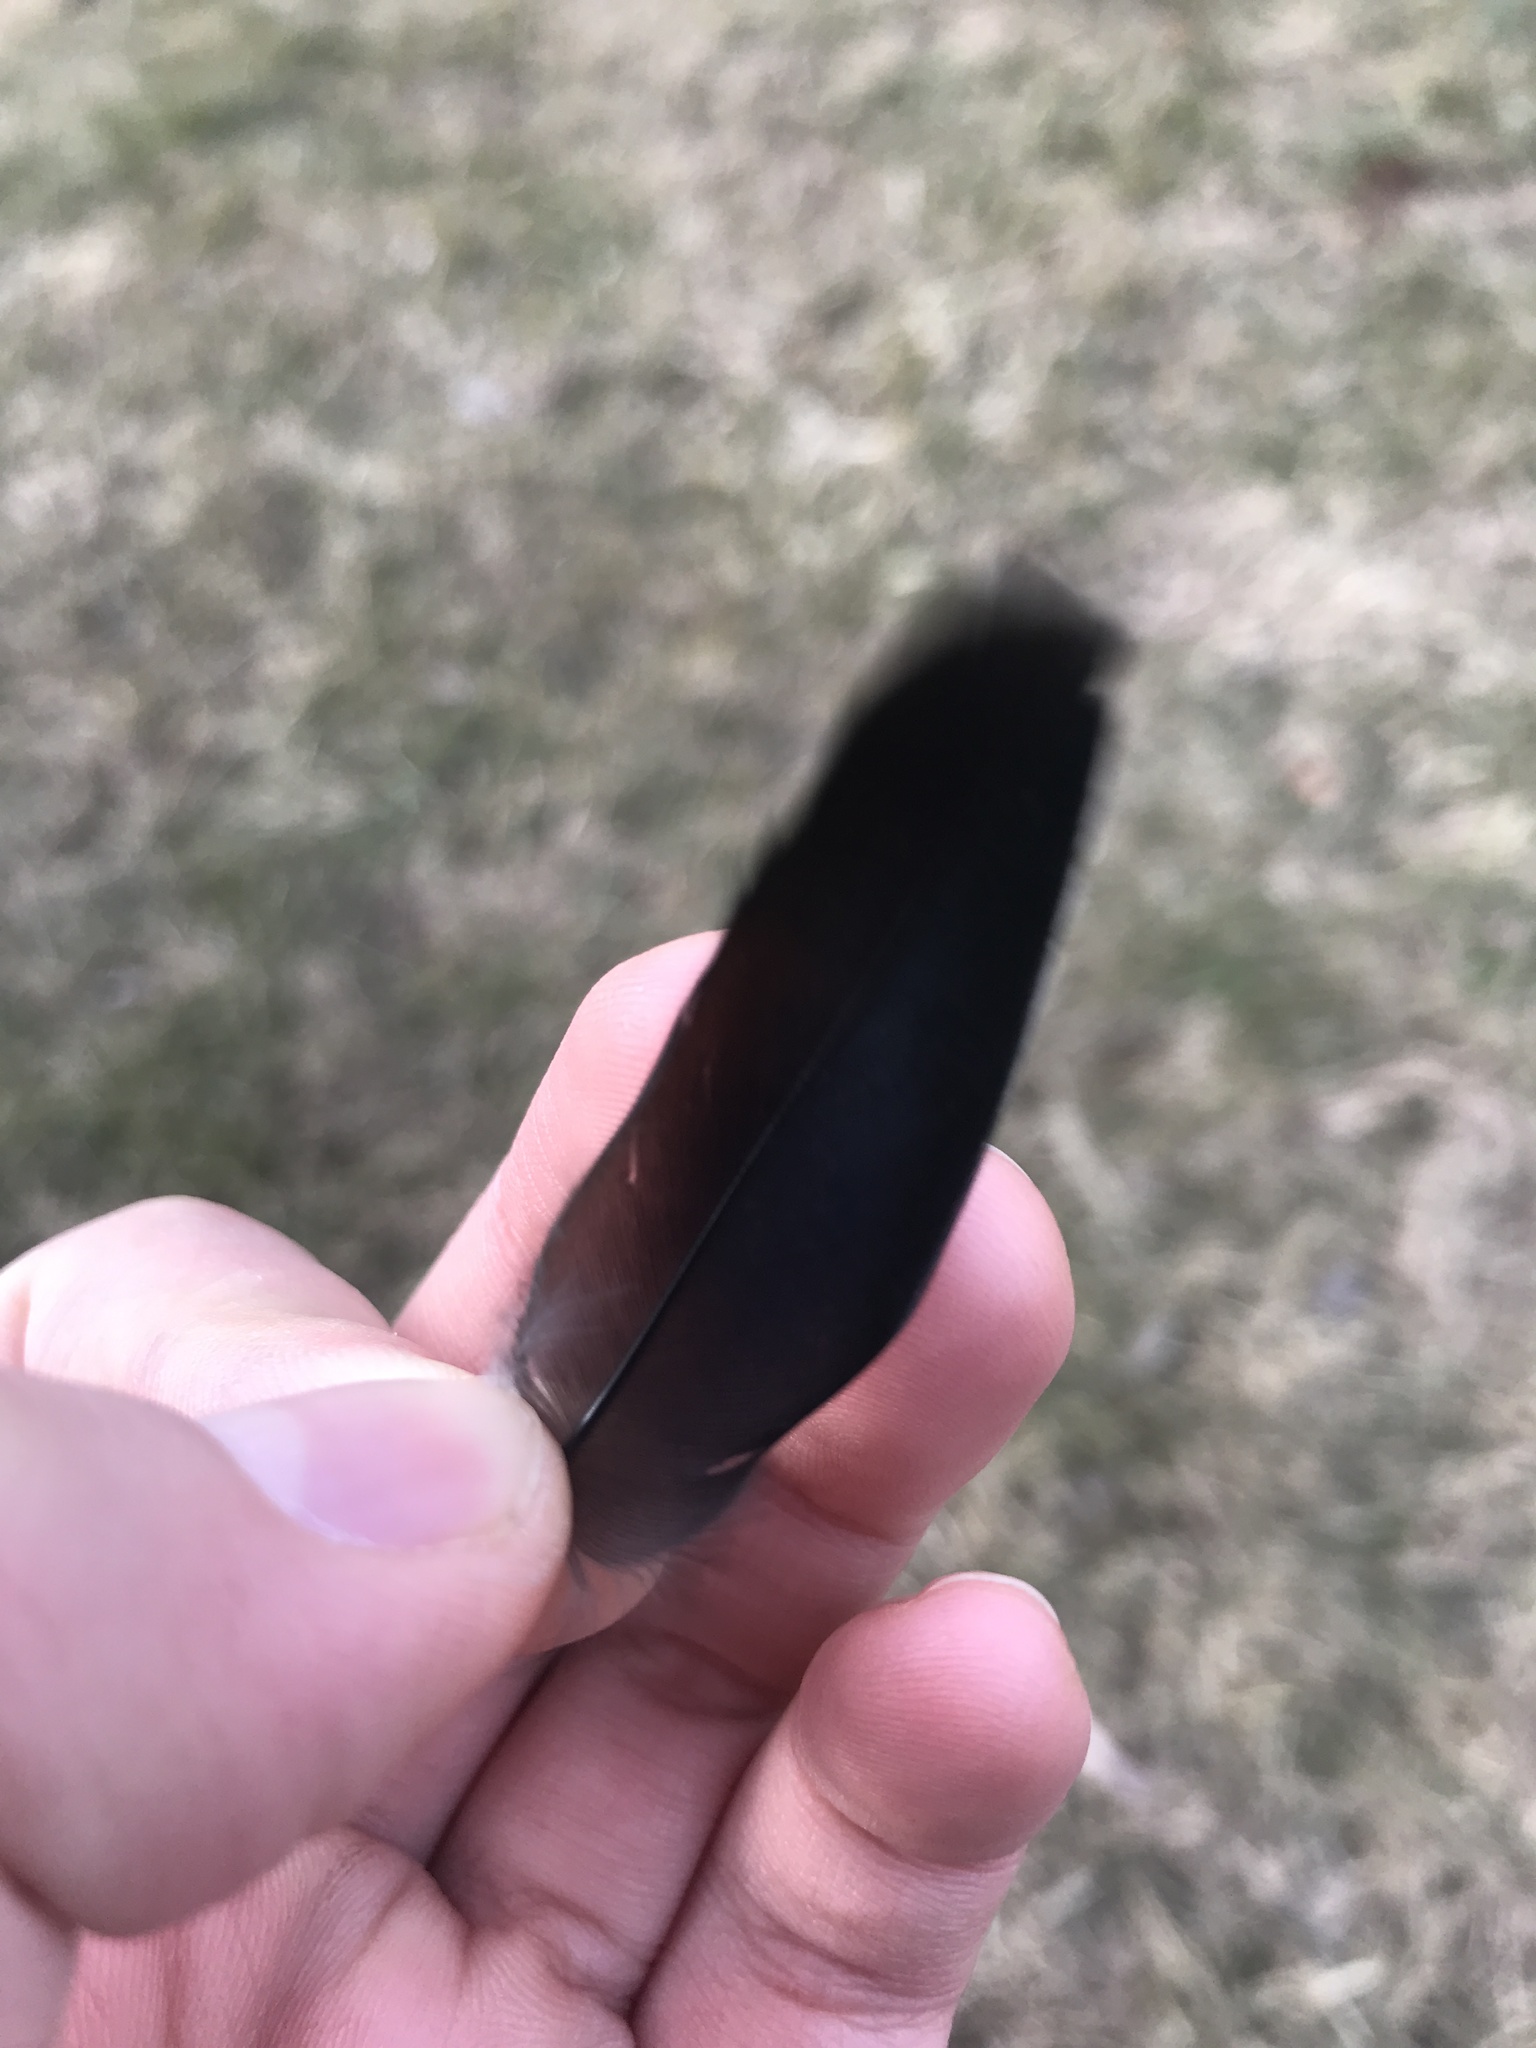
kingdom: Animalia
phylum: Chordata
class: Aves
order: Passeriformes
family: Icteridae
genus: Agelaius
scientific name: Agelaius phoeniceus
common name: Red-winged blackbird
